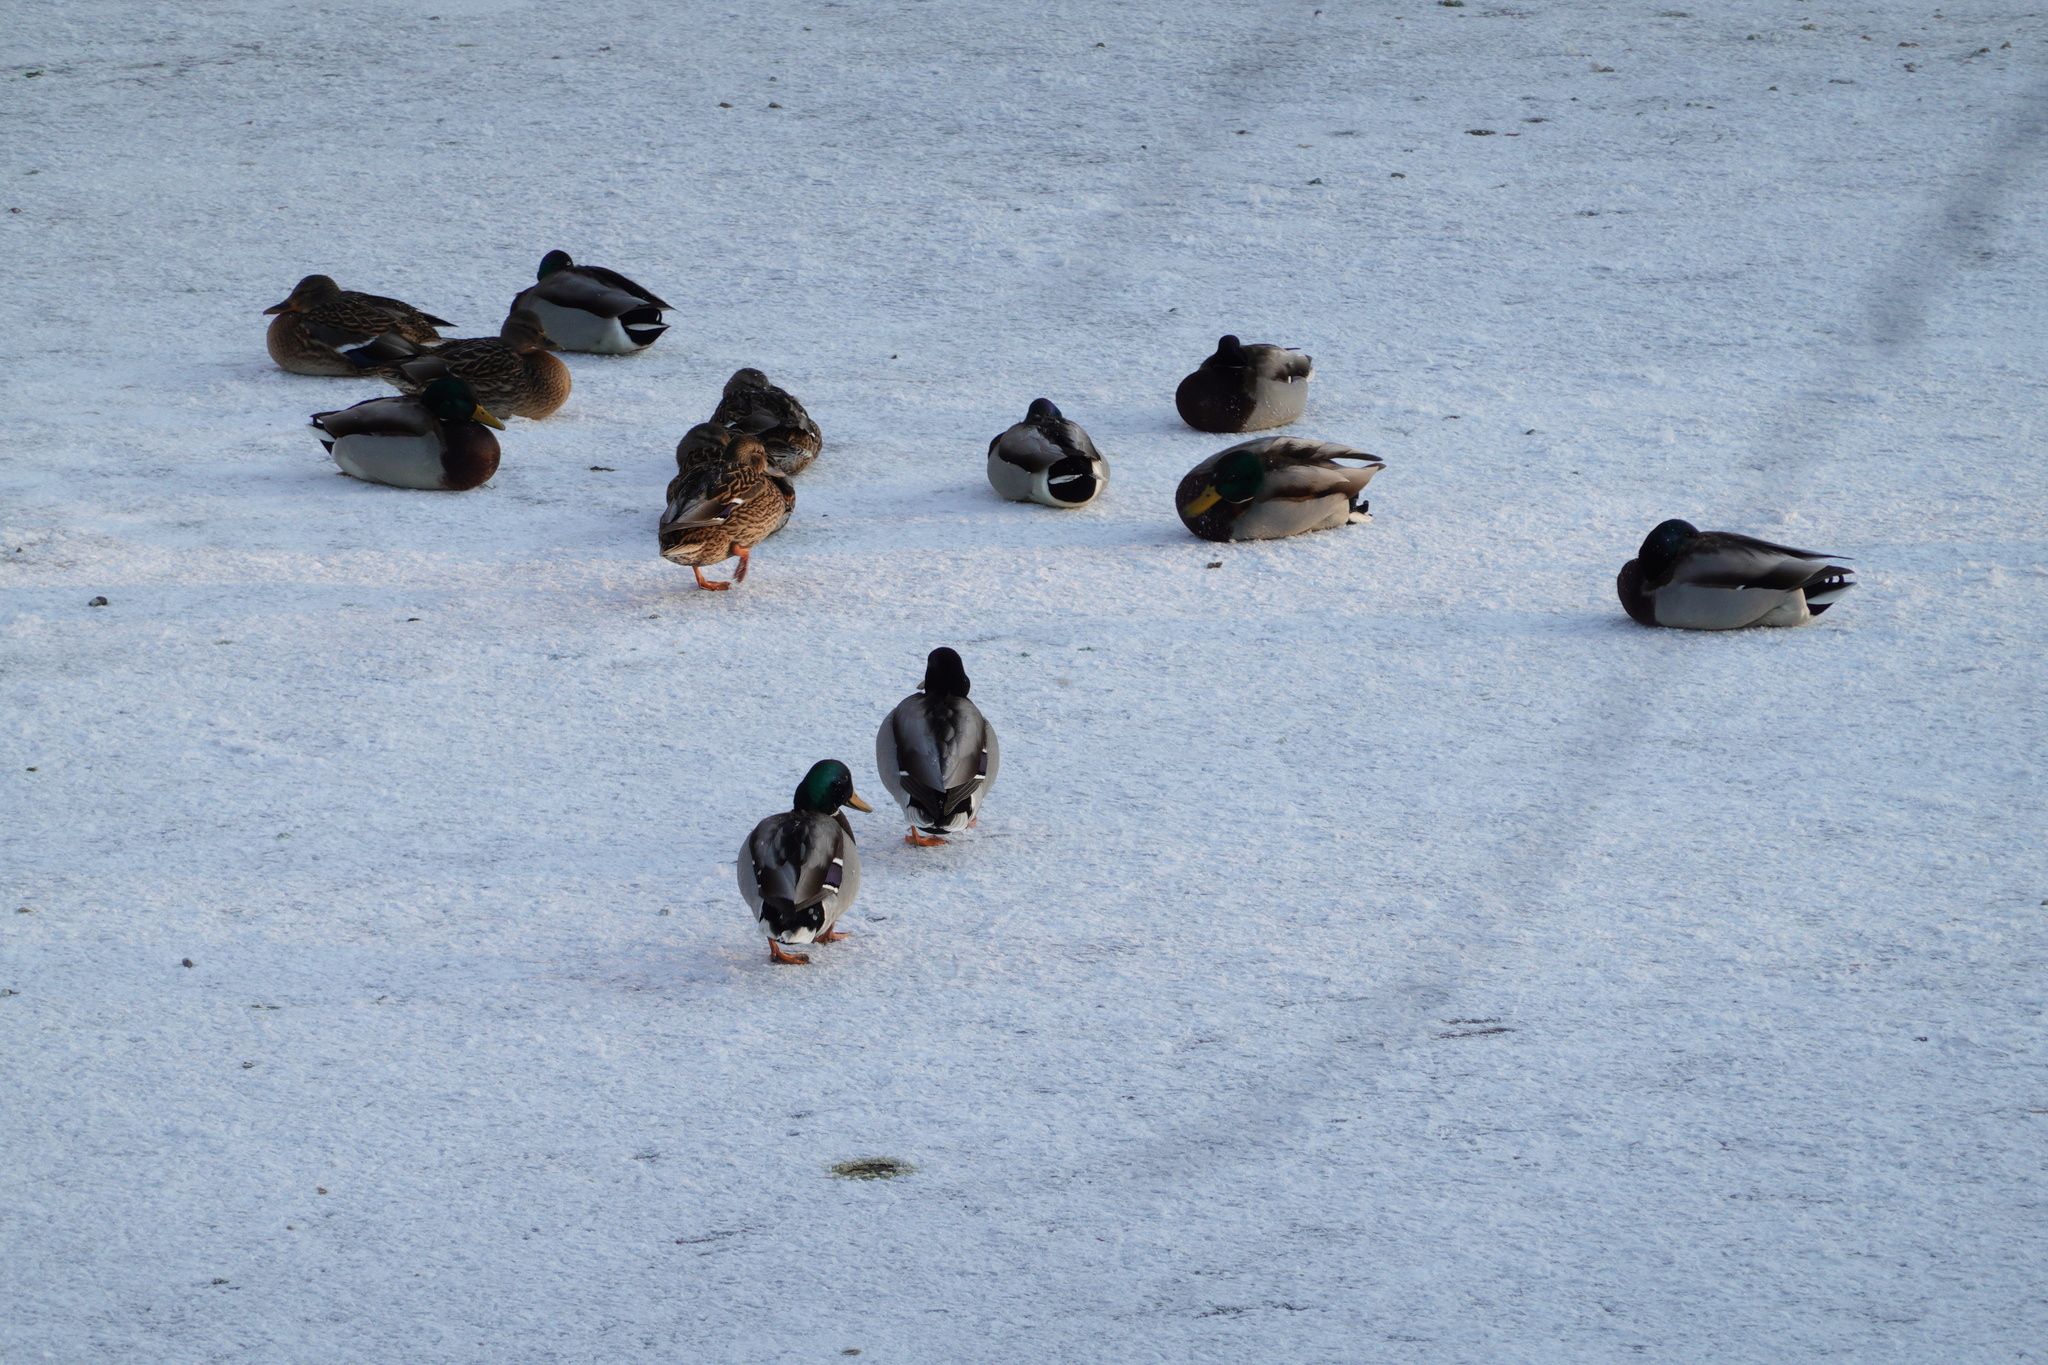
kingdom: Animalia
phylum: Chordata
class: Aves
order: Anseriformes
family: Anatidae
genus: Anas
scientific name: Anas platyrhynchos
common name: Mallard
